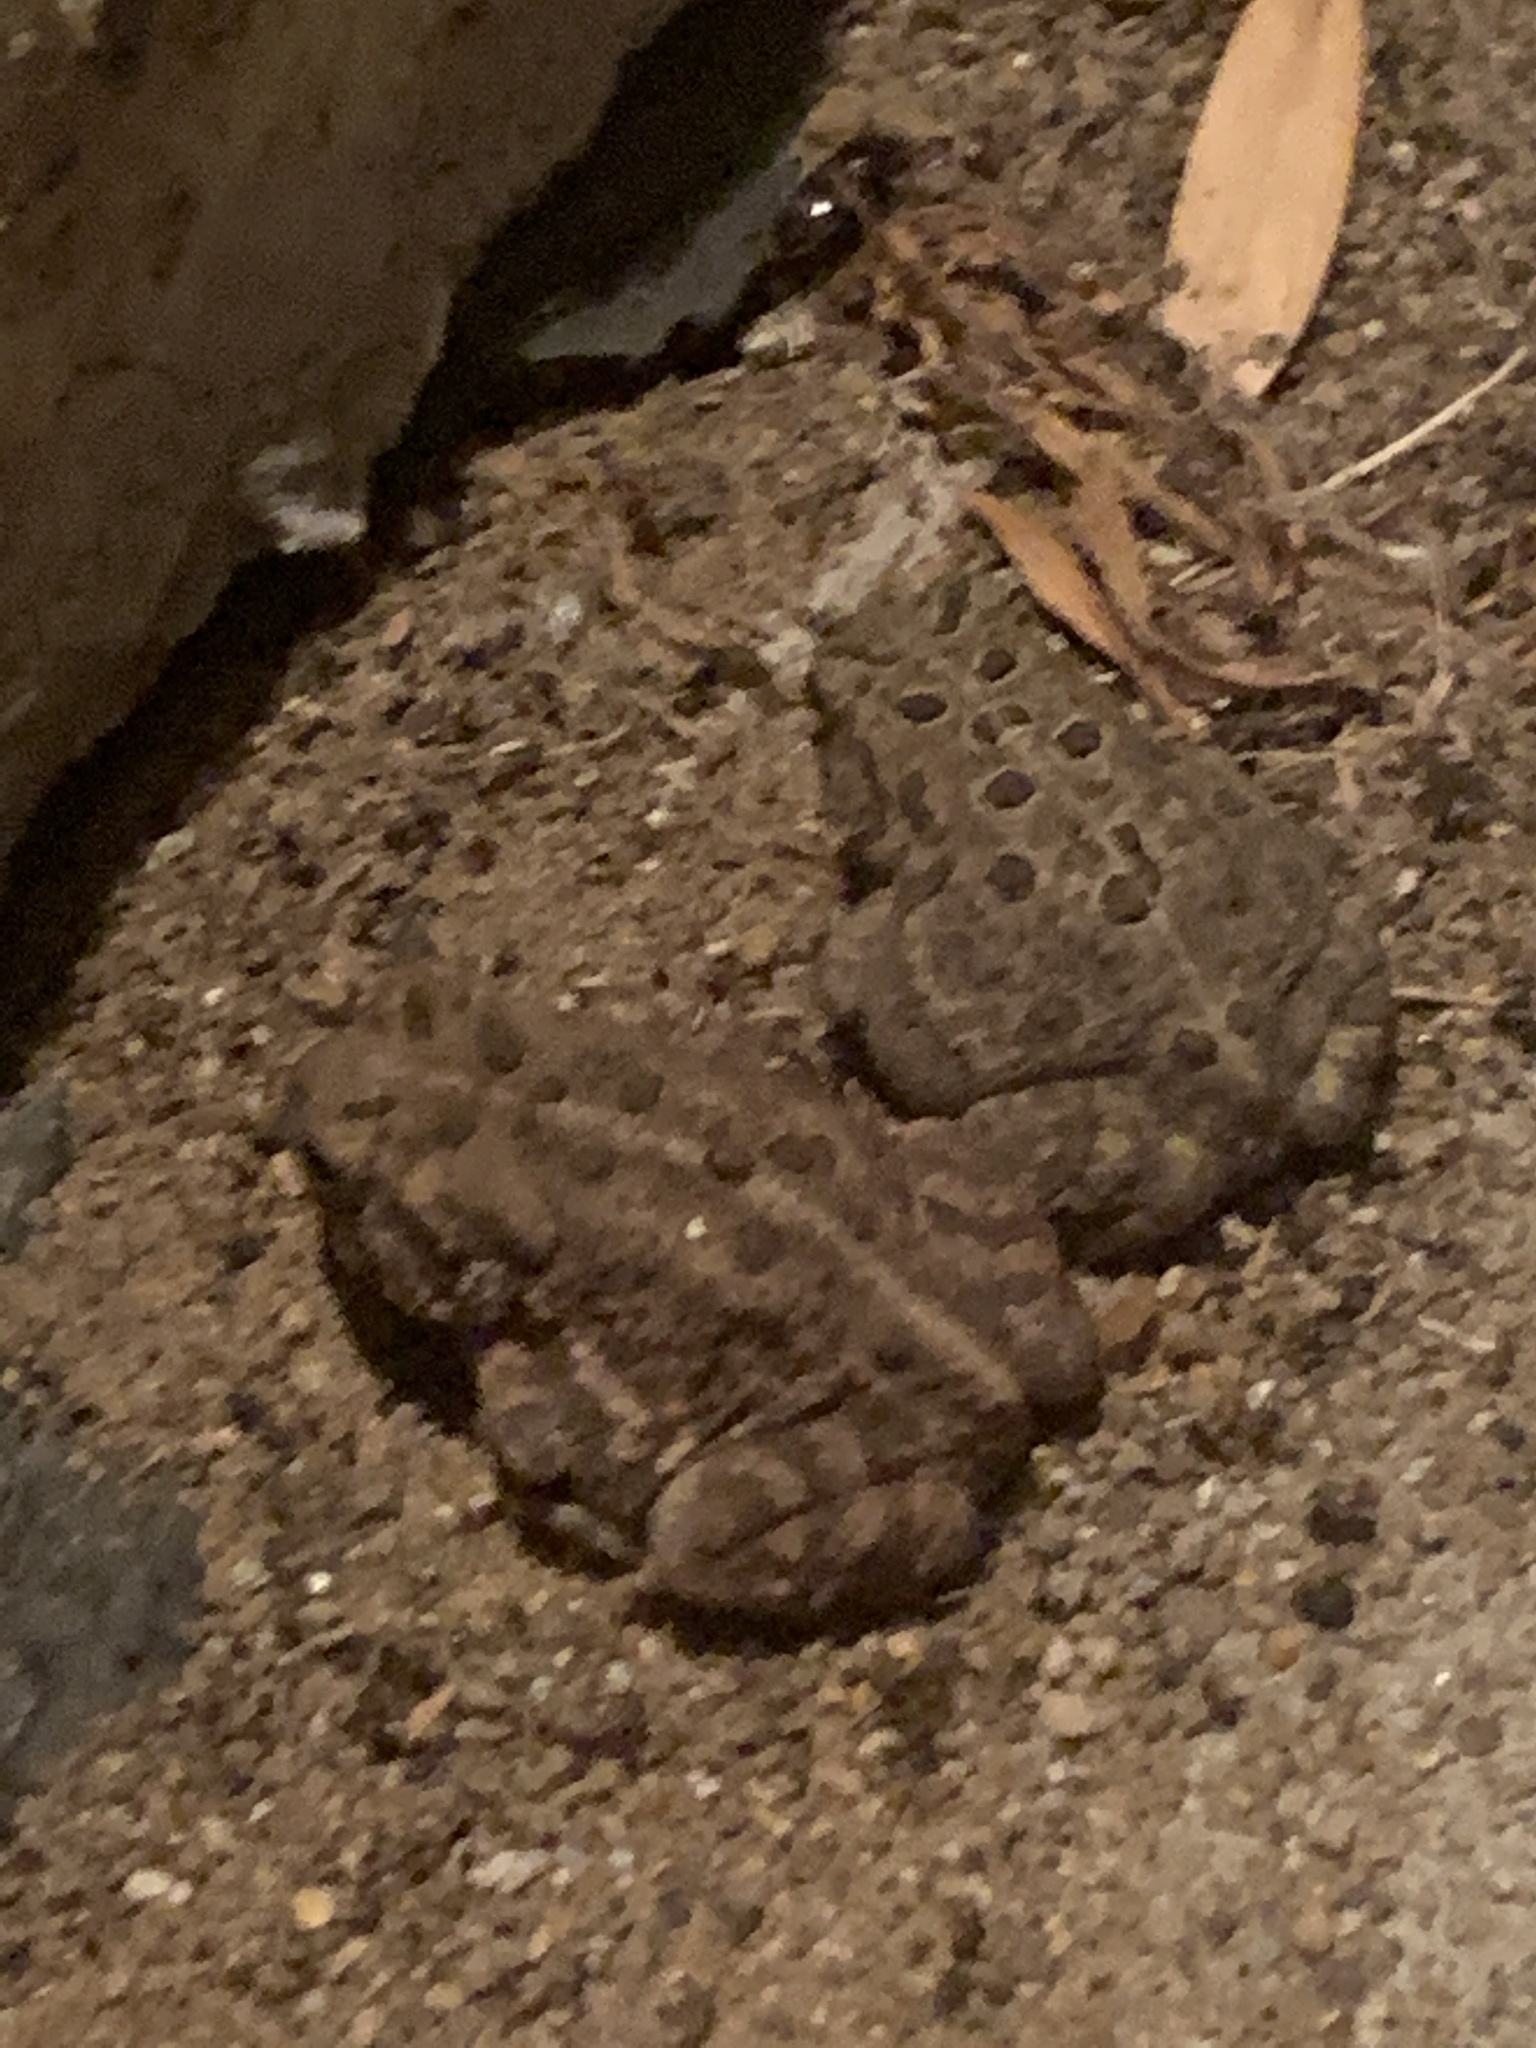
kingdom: Animalia
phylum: Chordata
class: Amphibia
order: Anura
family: Bufonidae
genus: Anaxyrus
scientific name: Anaxyrus americanus
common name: American toad
